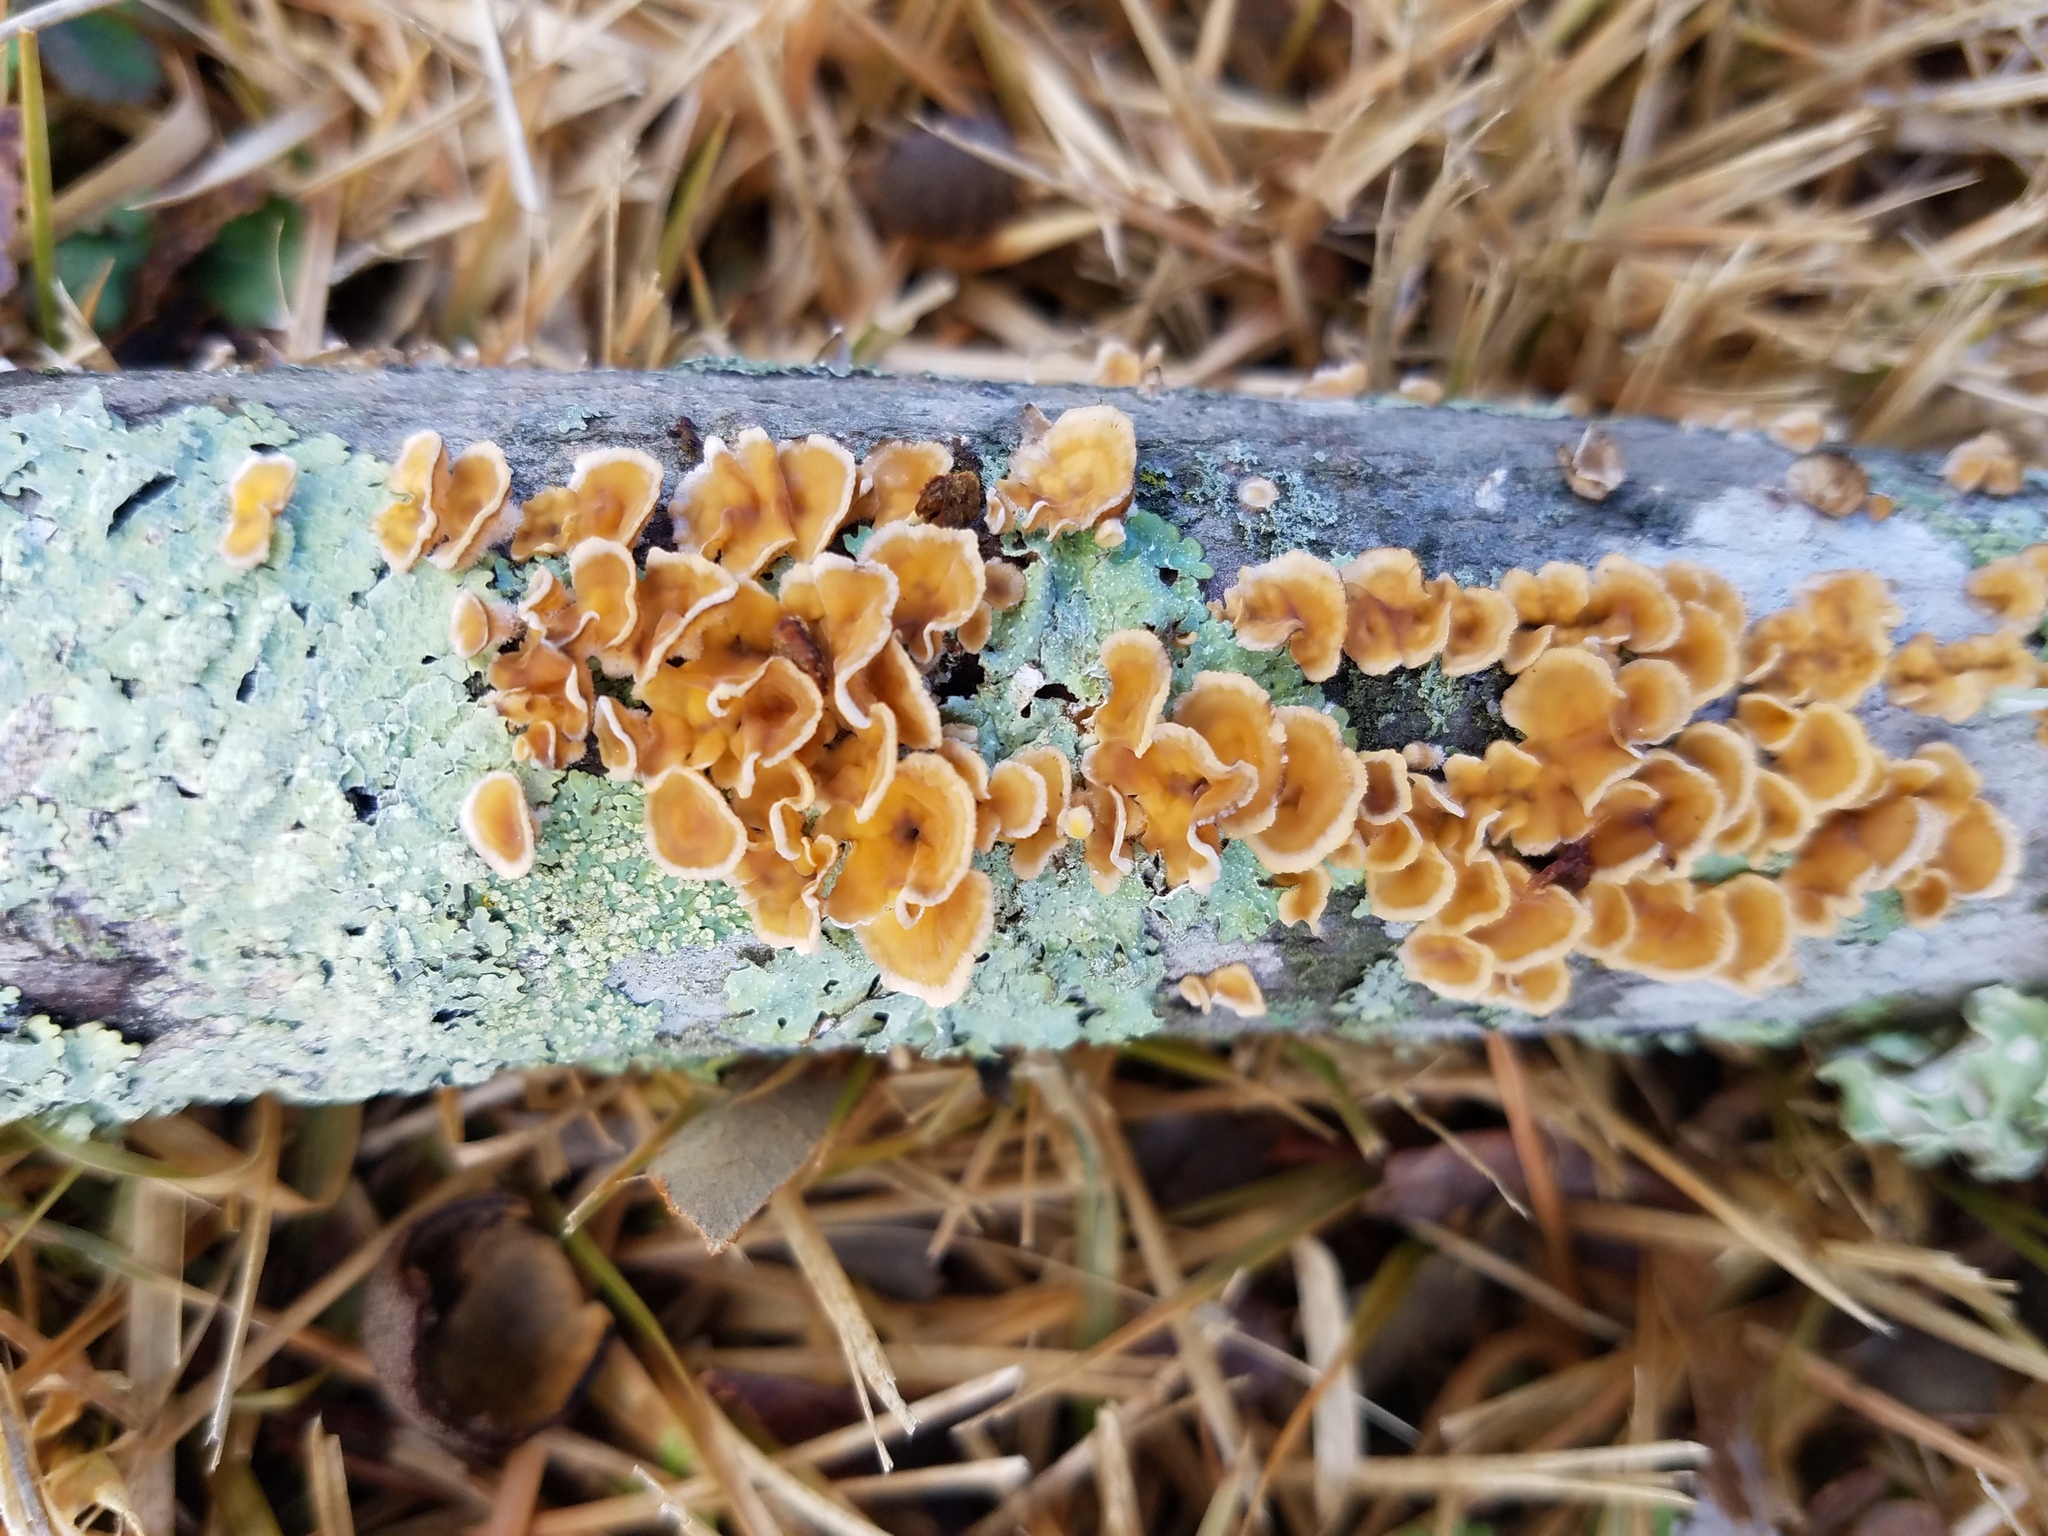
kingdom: Fungi
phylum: Basidiomycota
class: Agaricomycetes
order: Russulales
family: Stereaceae
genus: Stereum
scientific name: Stereum complicatum
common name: Crowded parchment
